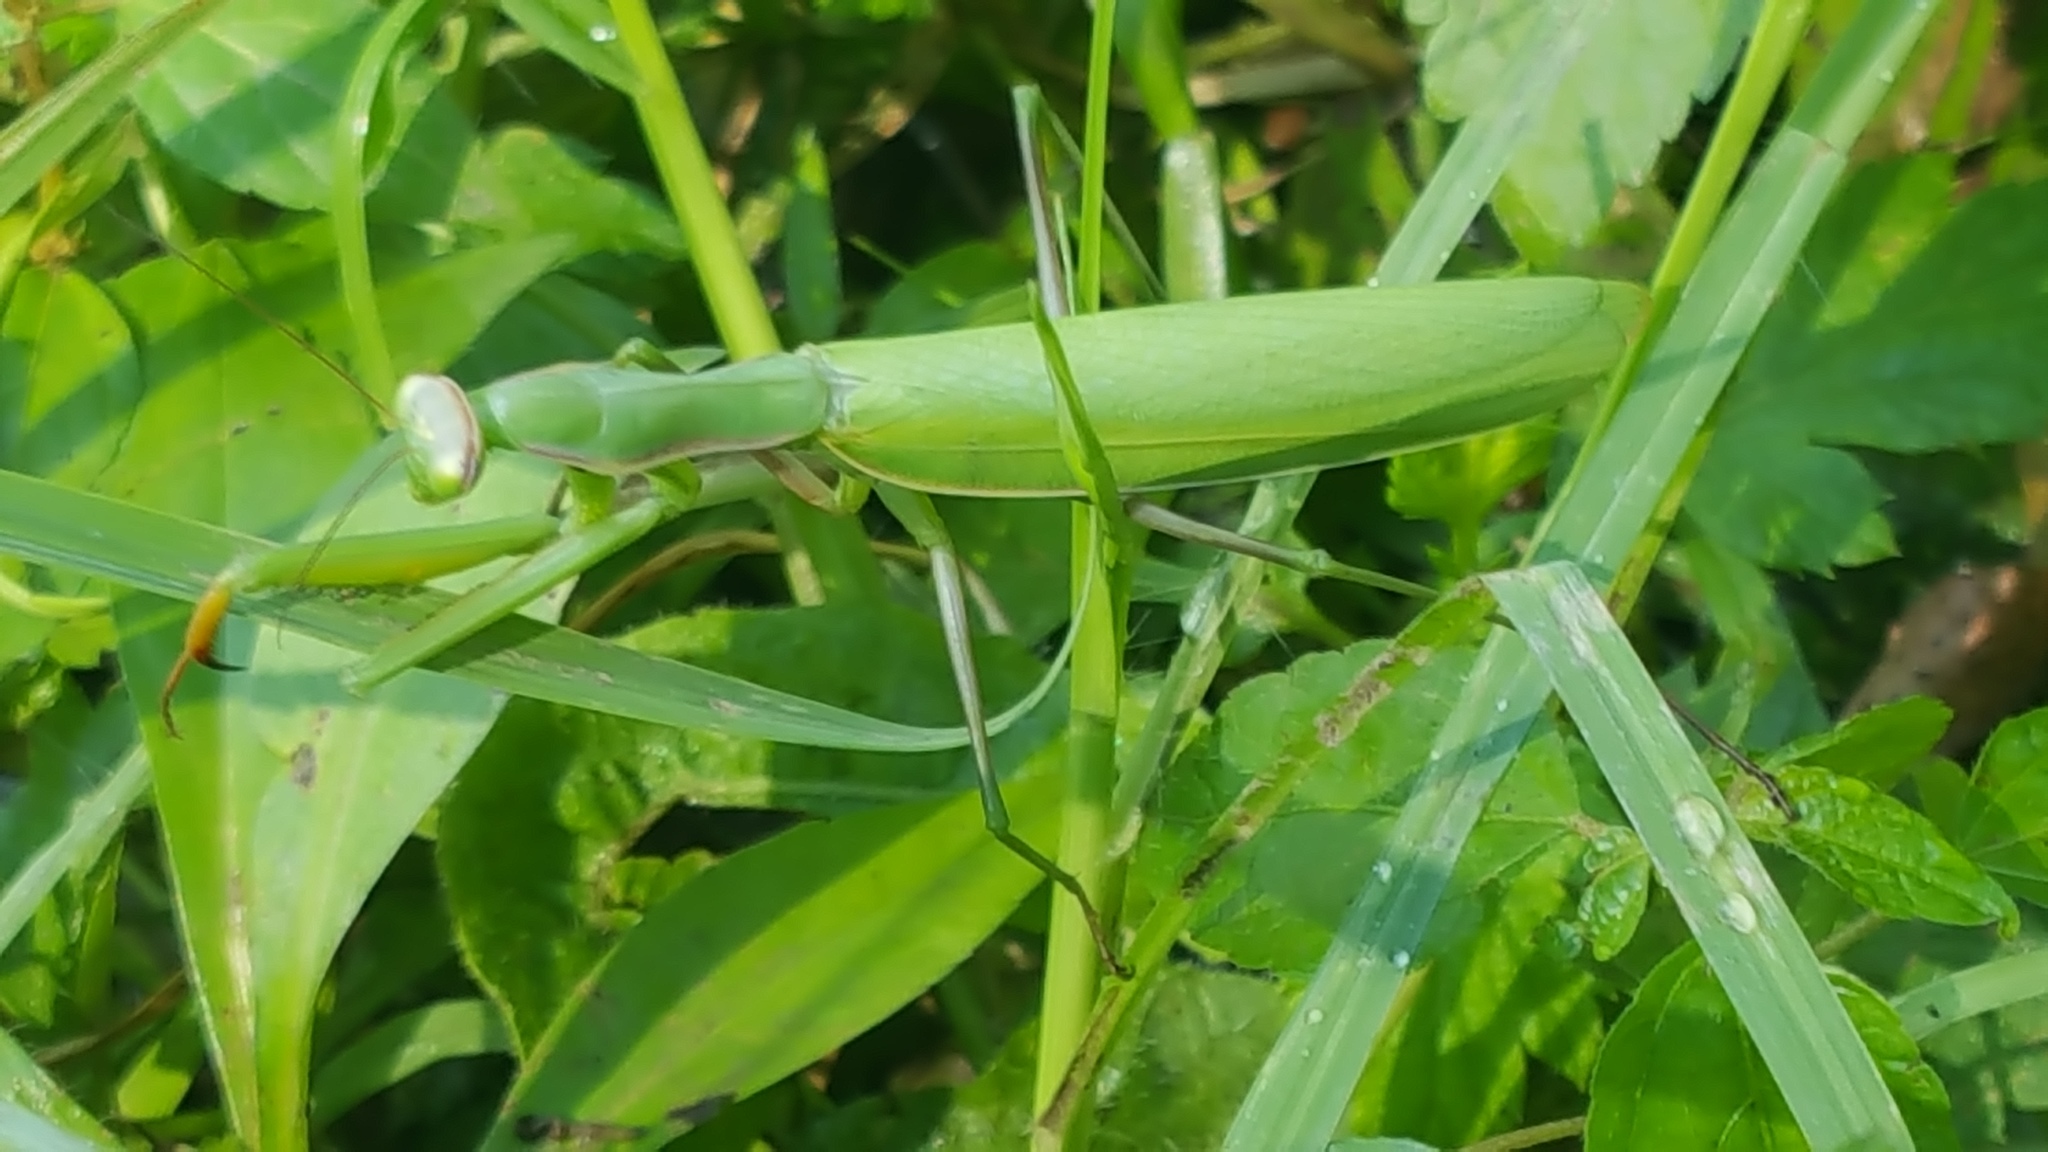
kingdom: Animalia
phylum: Arthropoda
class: Insecta
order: Mantodea
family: Mantidae
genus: Mantis
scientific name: Mantis religiosa
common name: Praying mantis
